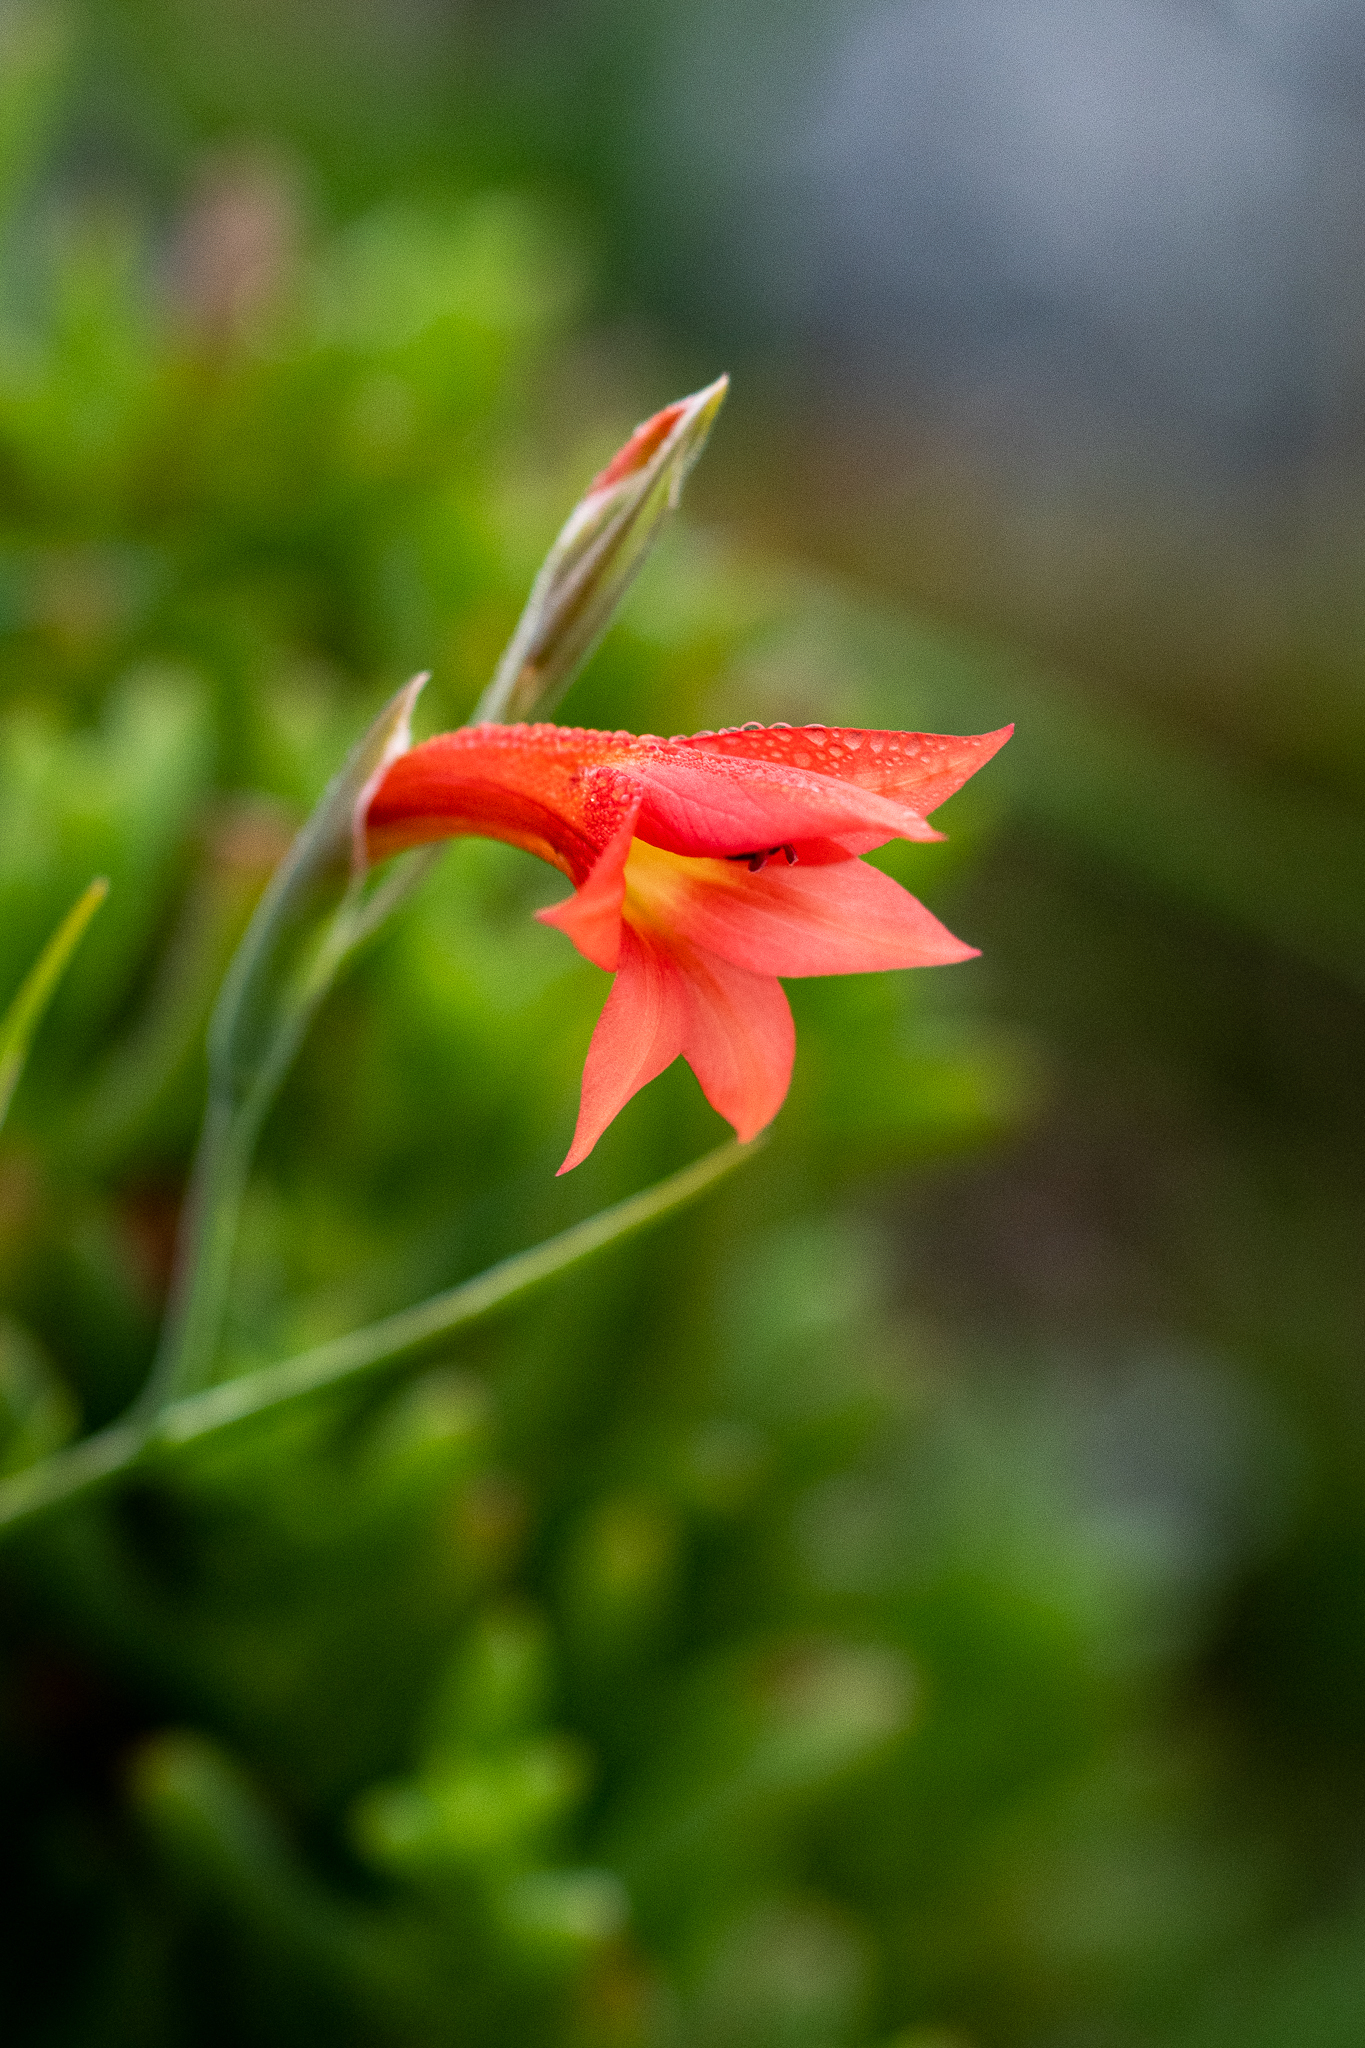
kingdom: Plantae
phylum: Tracheophyta
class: Liliopsida
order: Asparagales
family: Iridaceae
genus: Gladiolus
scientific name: Gladiolus priorii
